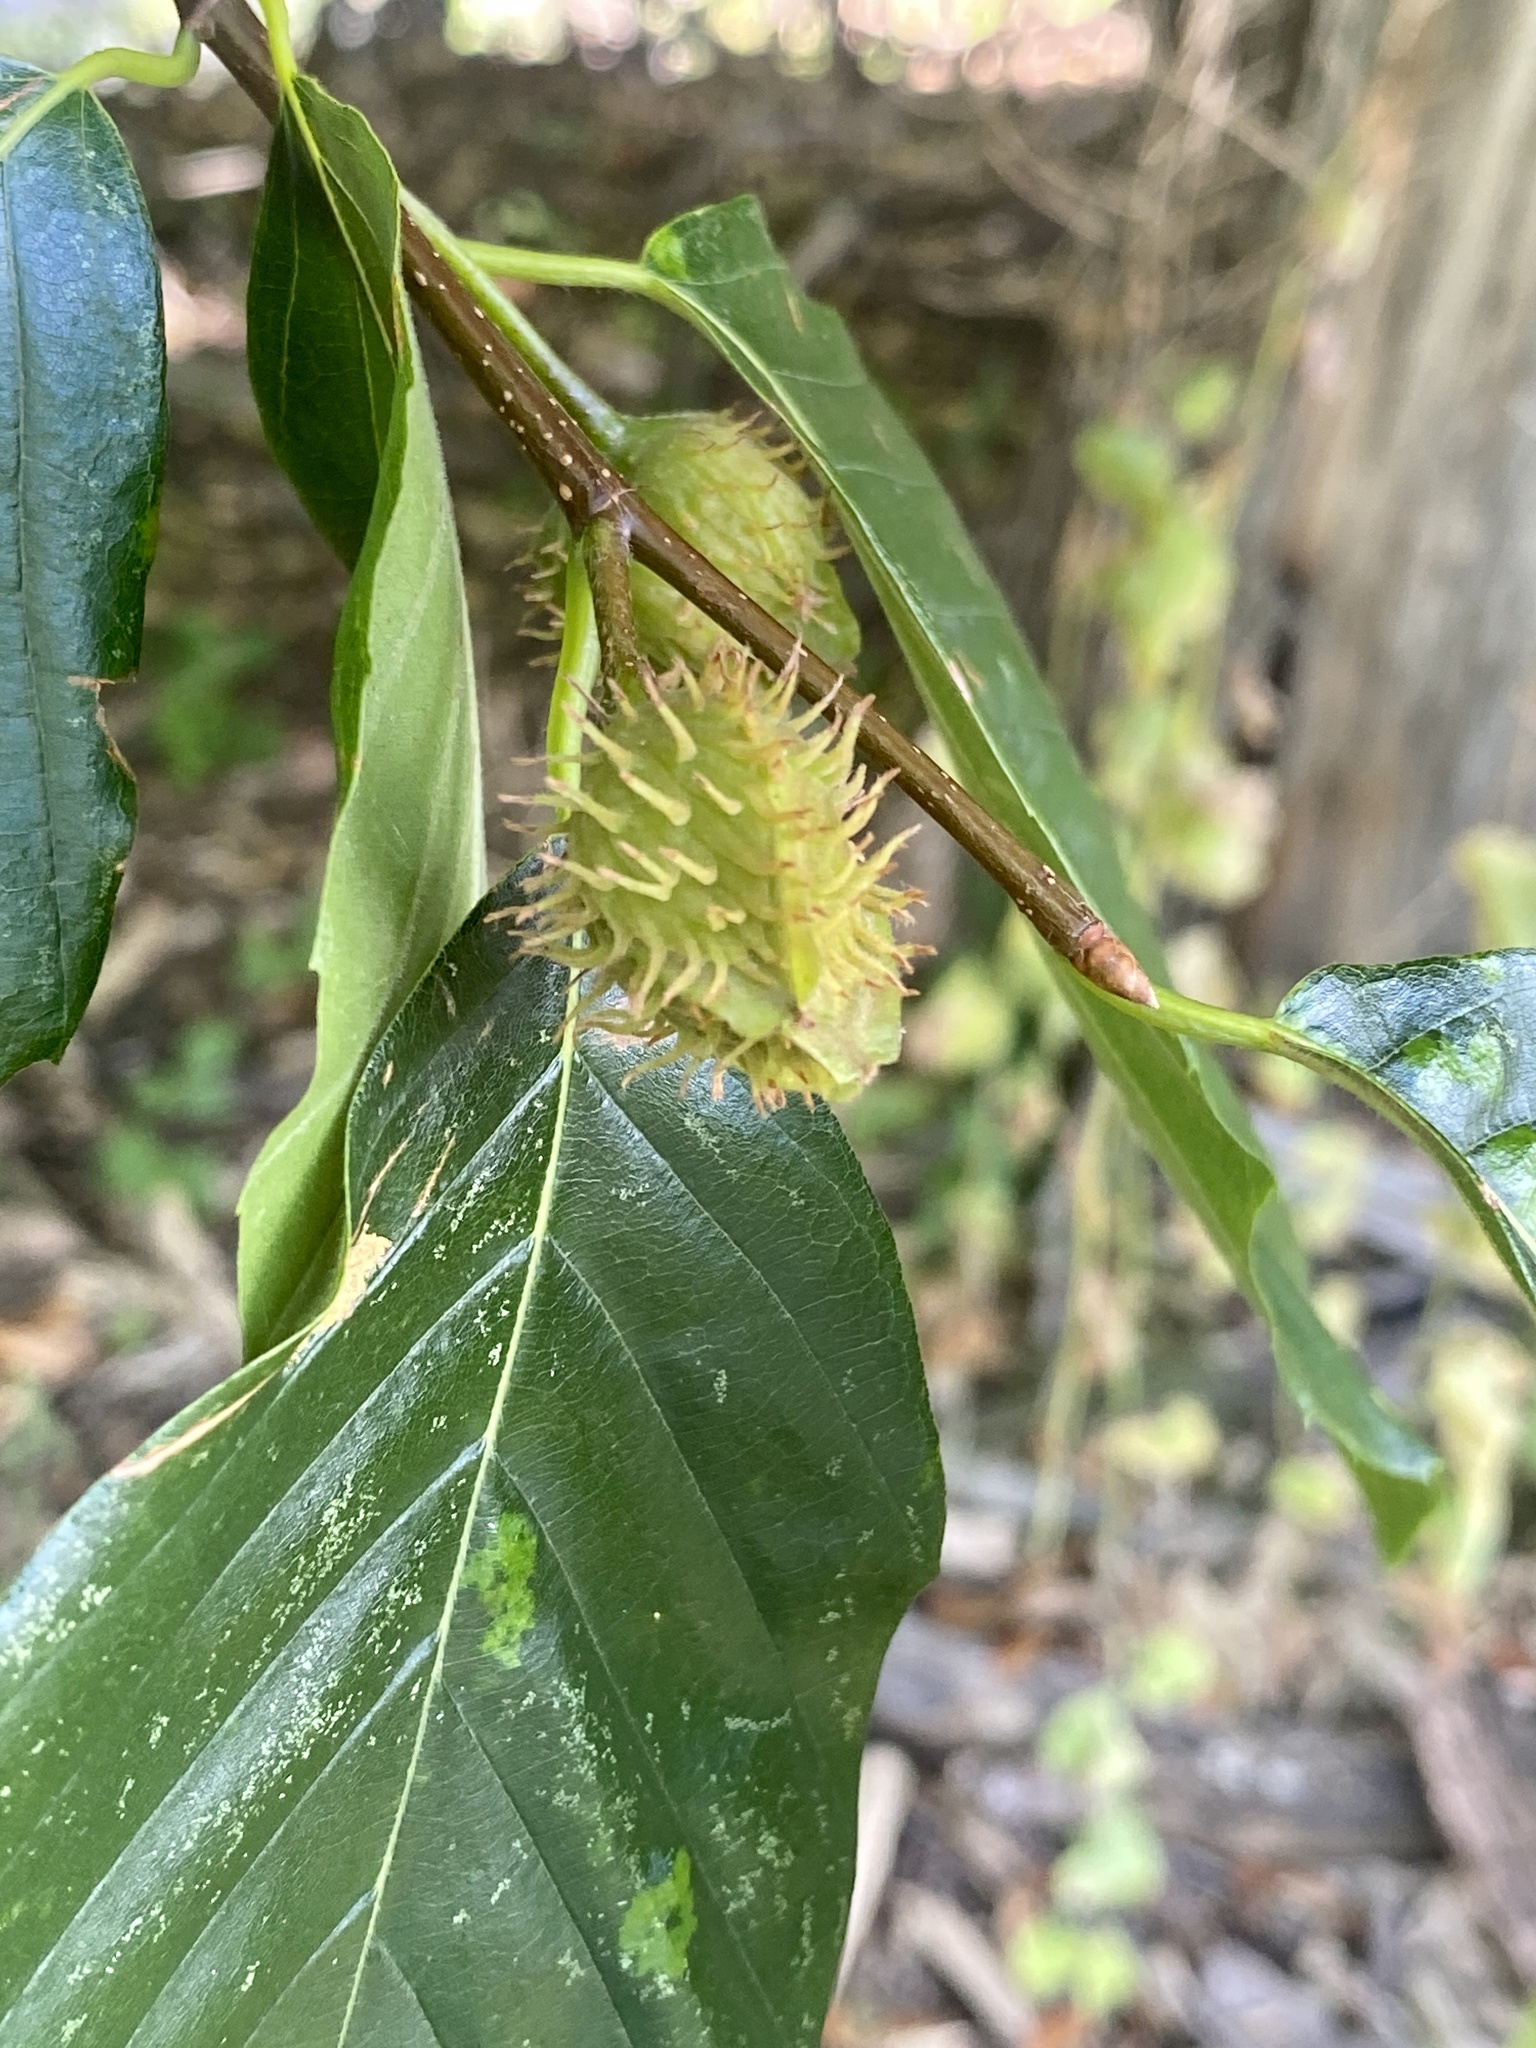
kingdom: Plantae
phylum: Tracheophyta
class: Magnoliopsida
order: Fagales
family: Fagaceae
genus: Fagus
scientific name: Fagus grandifolia
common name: American beech
